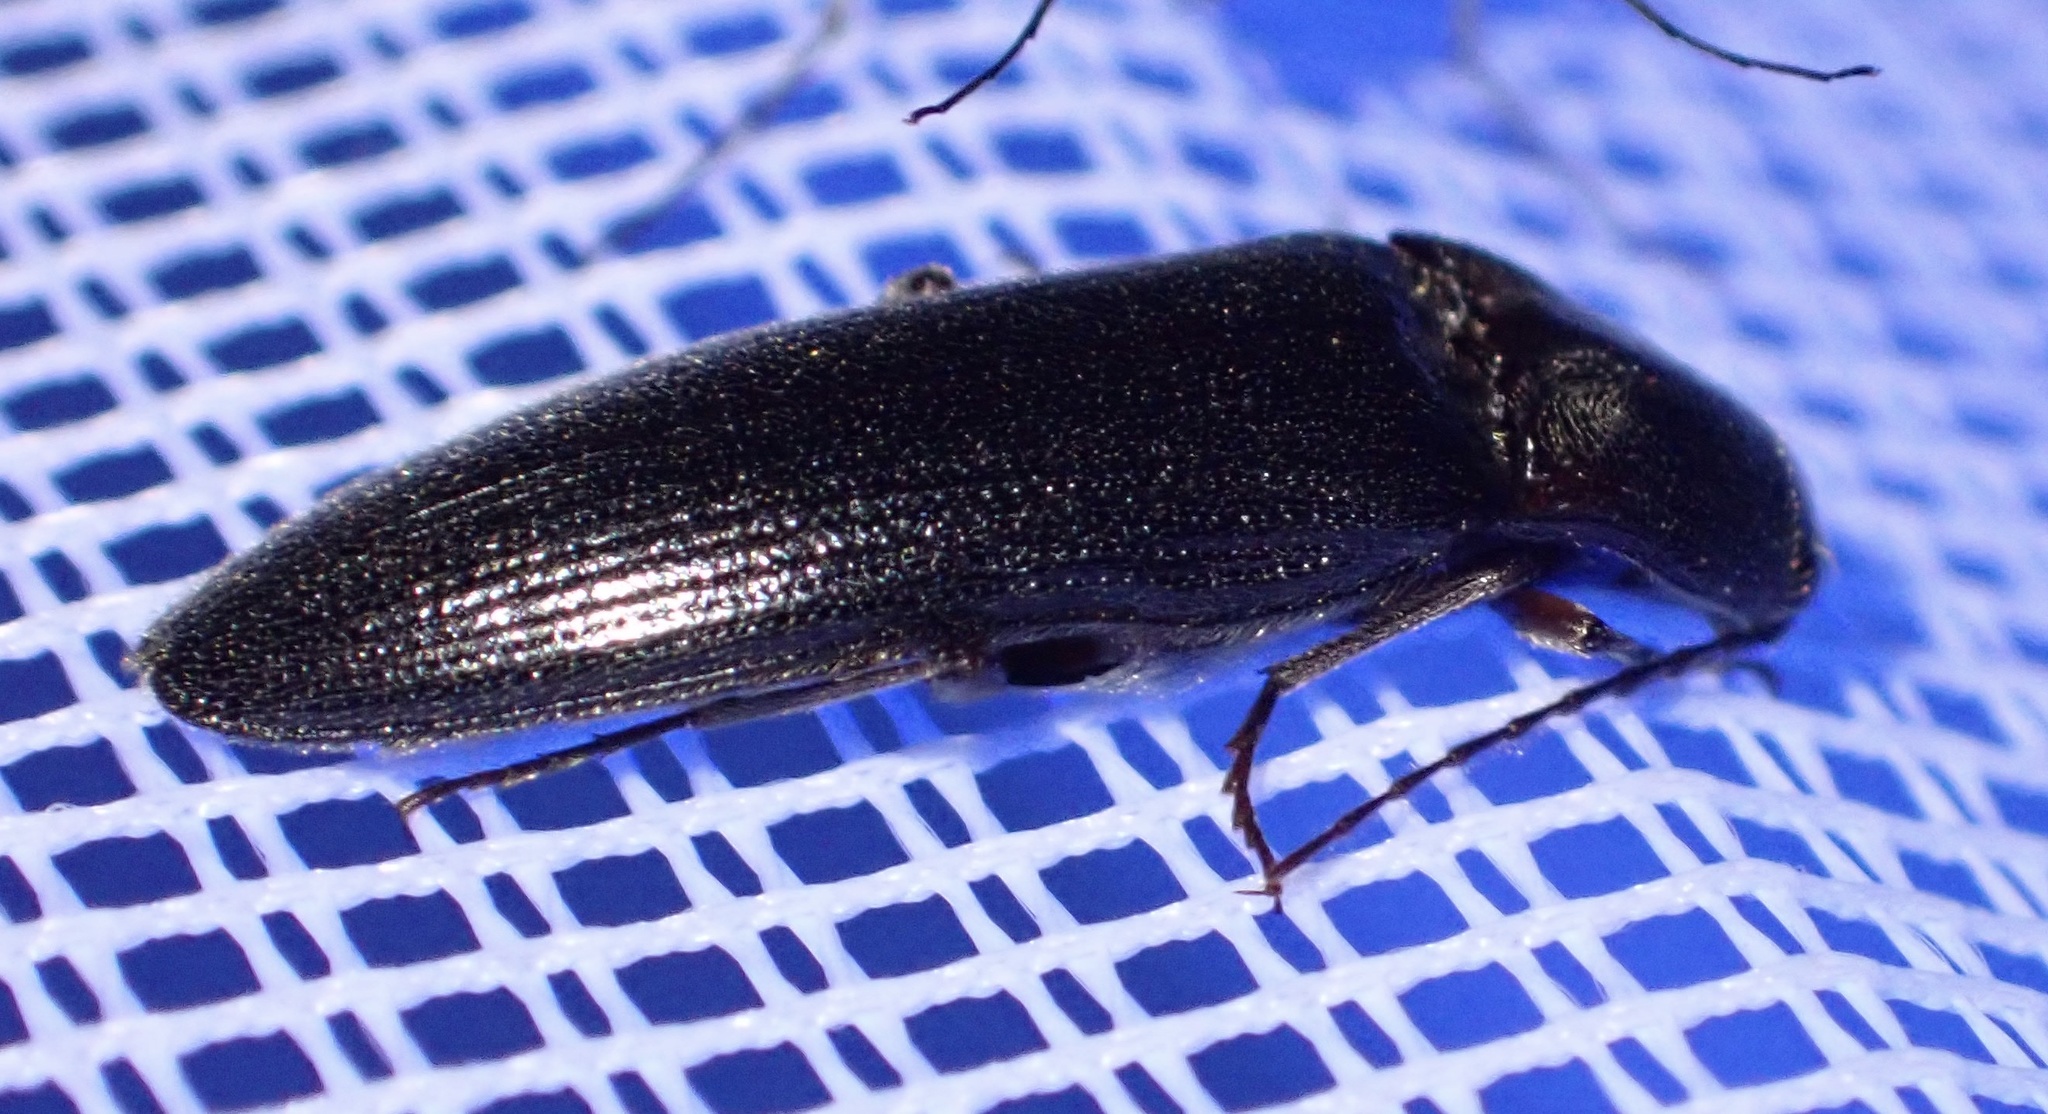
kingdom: Animalia
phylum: Arthropoda
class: Insecta
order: Coleoptera
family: Elateridae
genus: Melanotus
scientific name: Melanotus villosus
